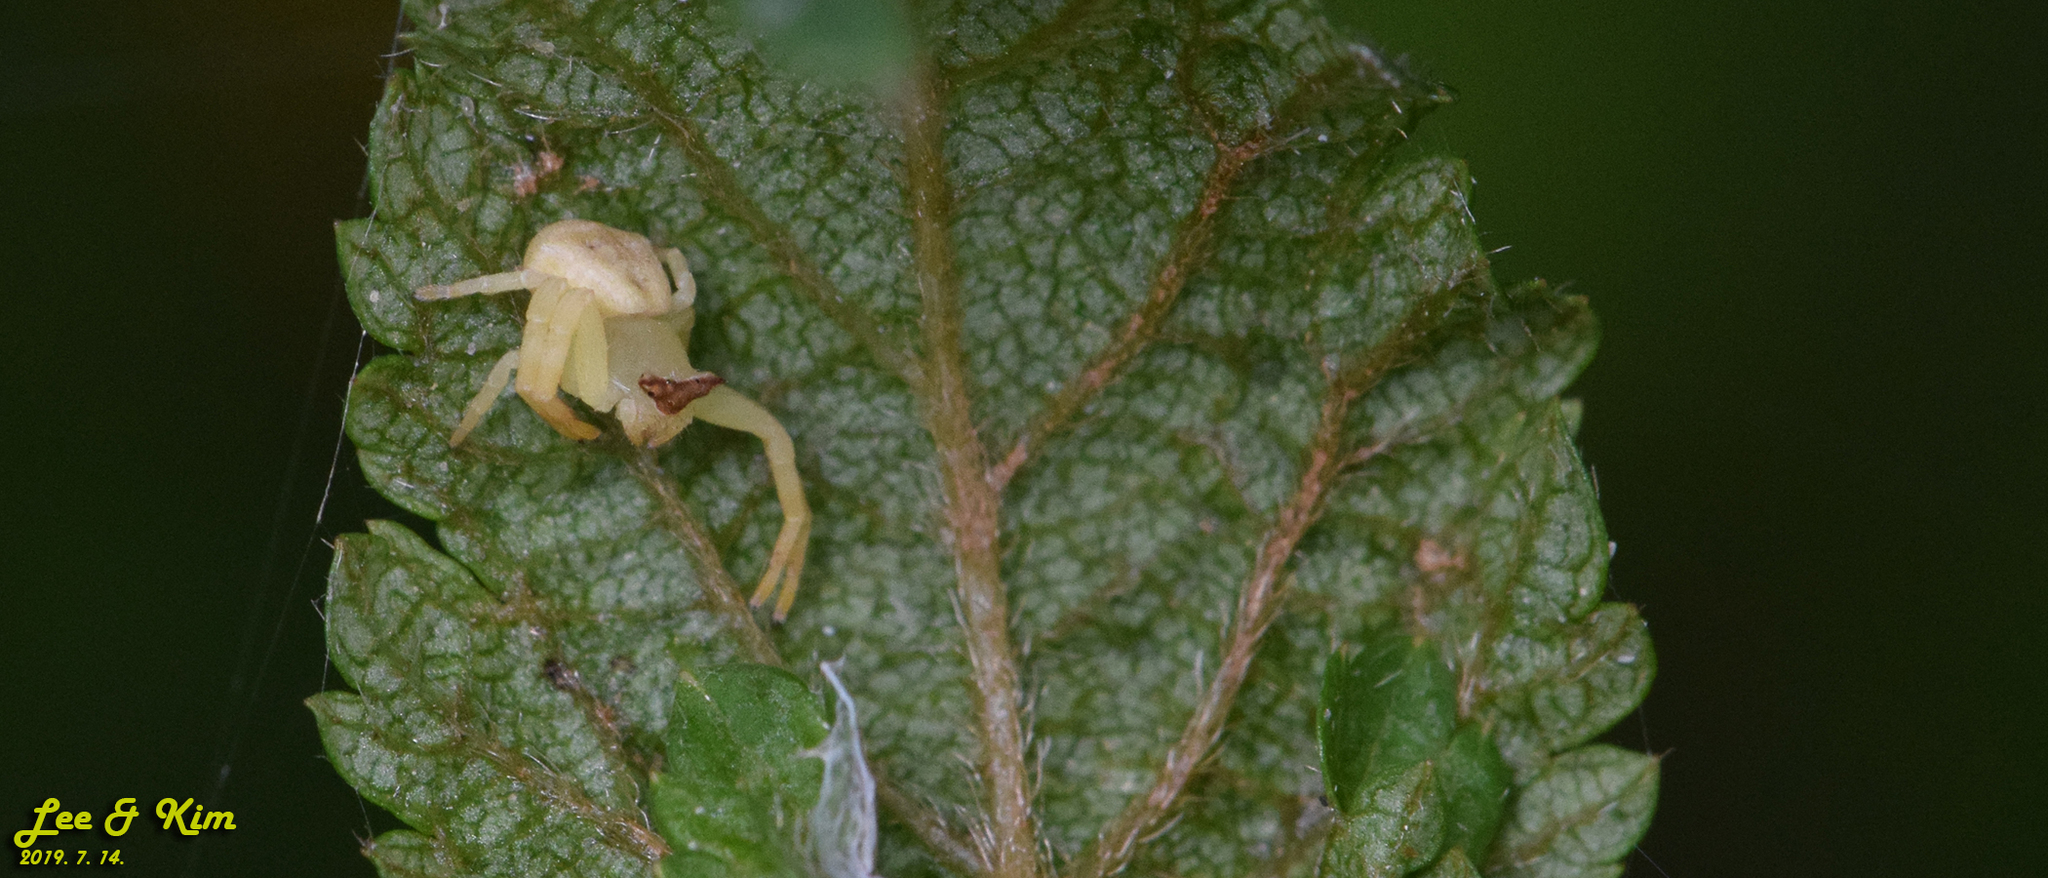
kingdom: Animalia
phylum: Arthropoda
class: Arachnida
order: Araneae
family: Thomisidae
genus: Thomisus
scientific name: Thomisus labefactus
